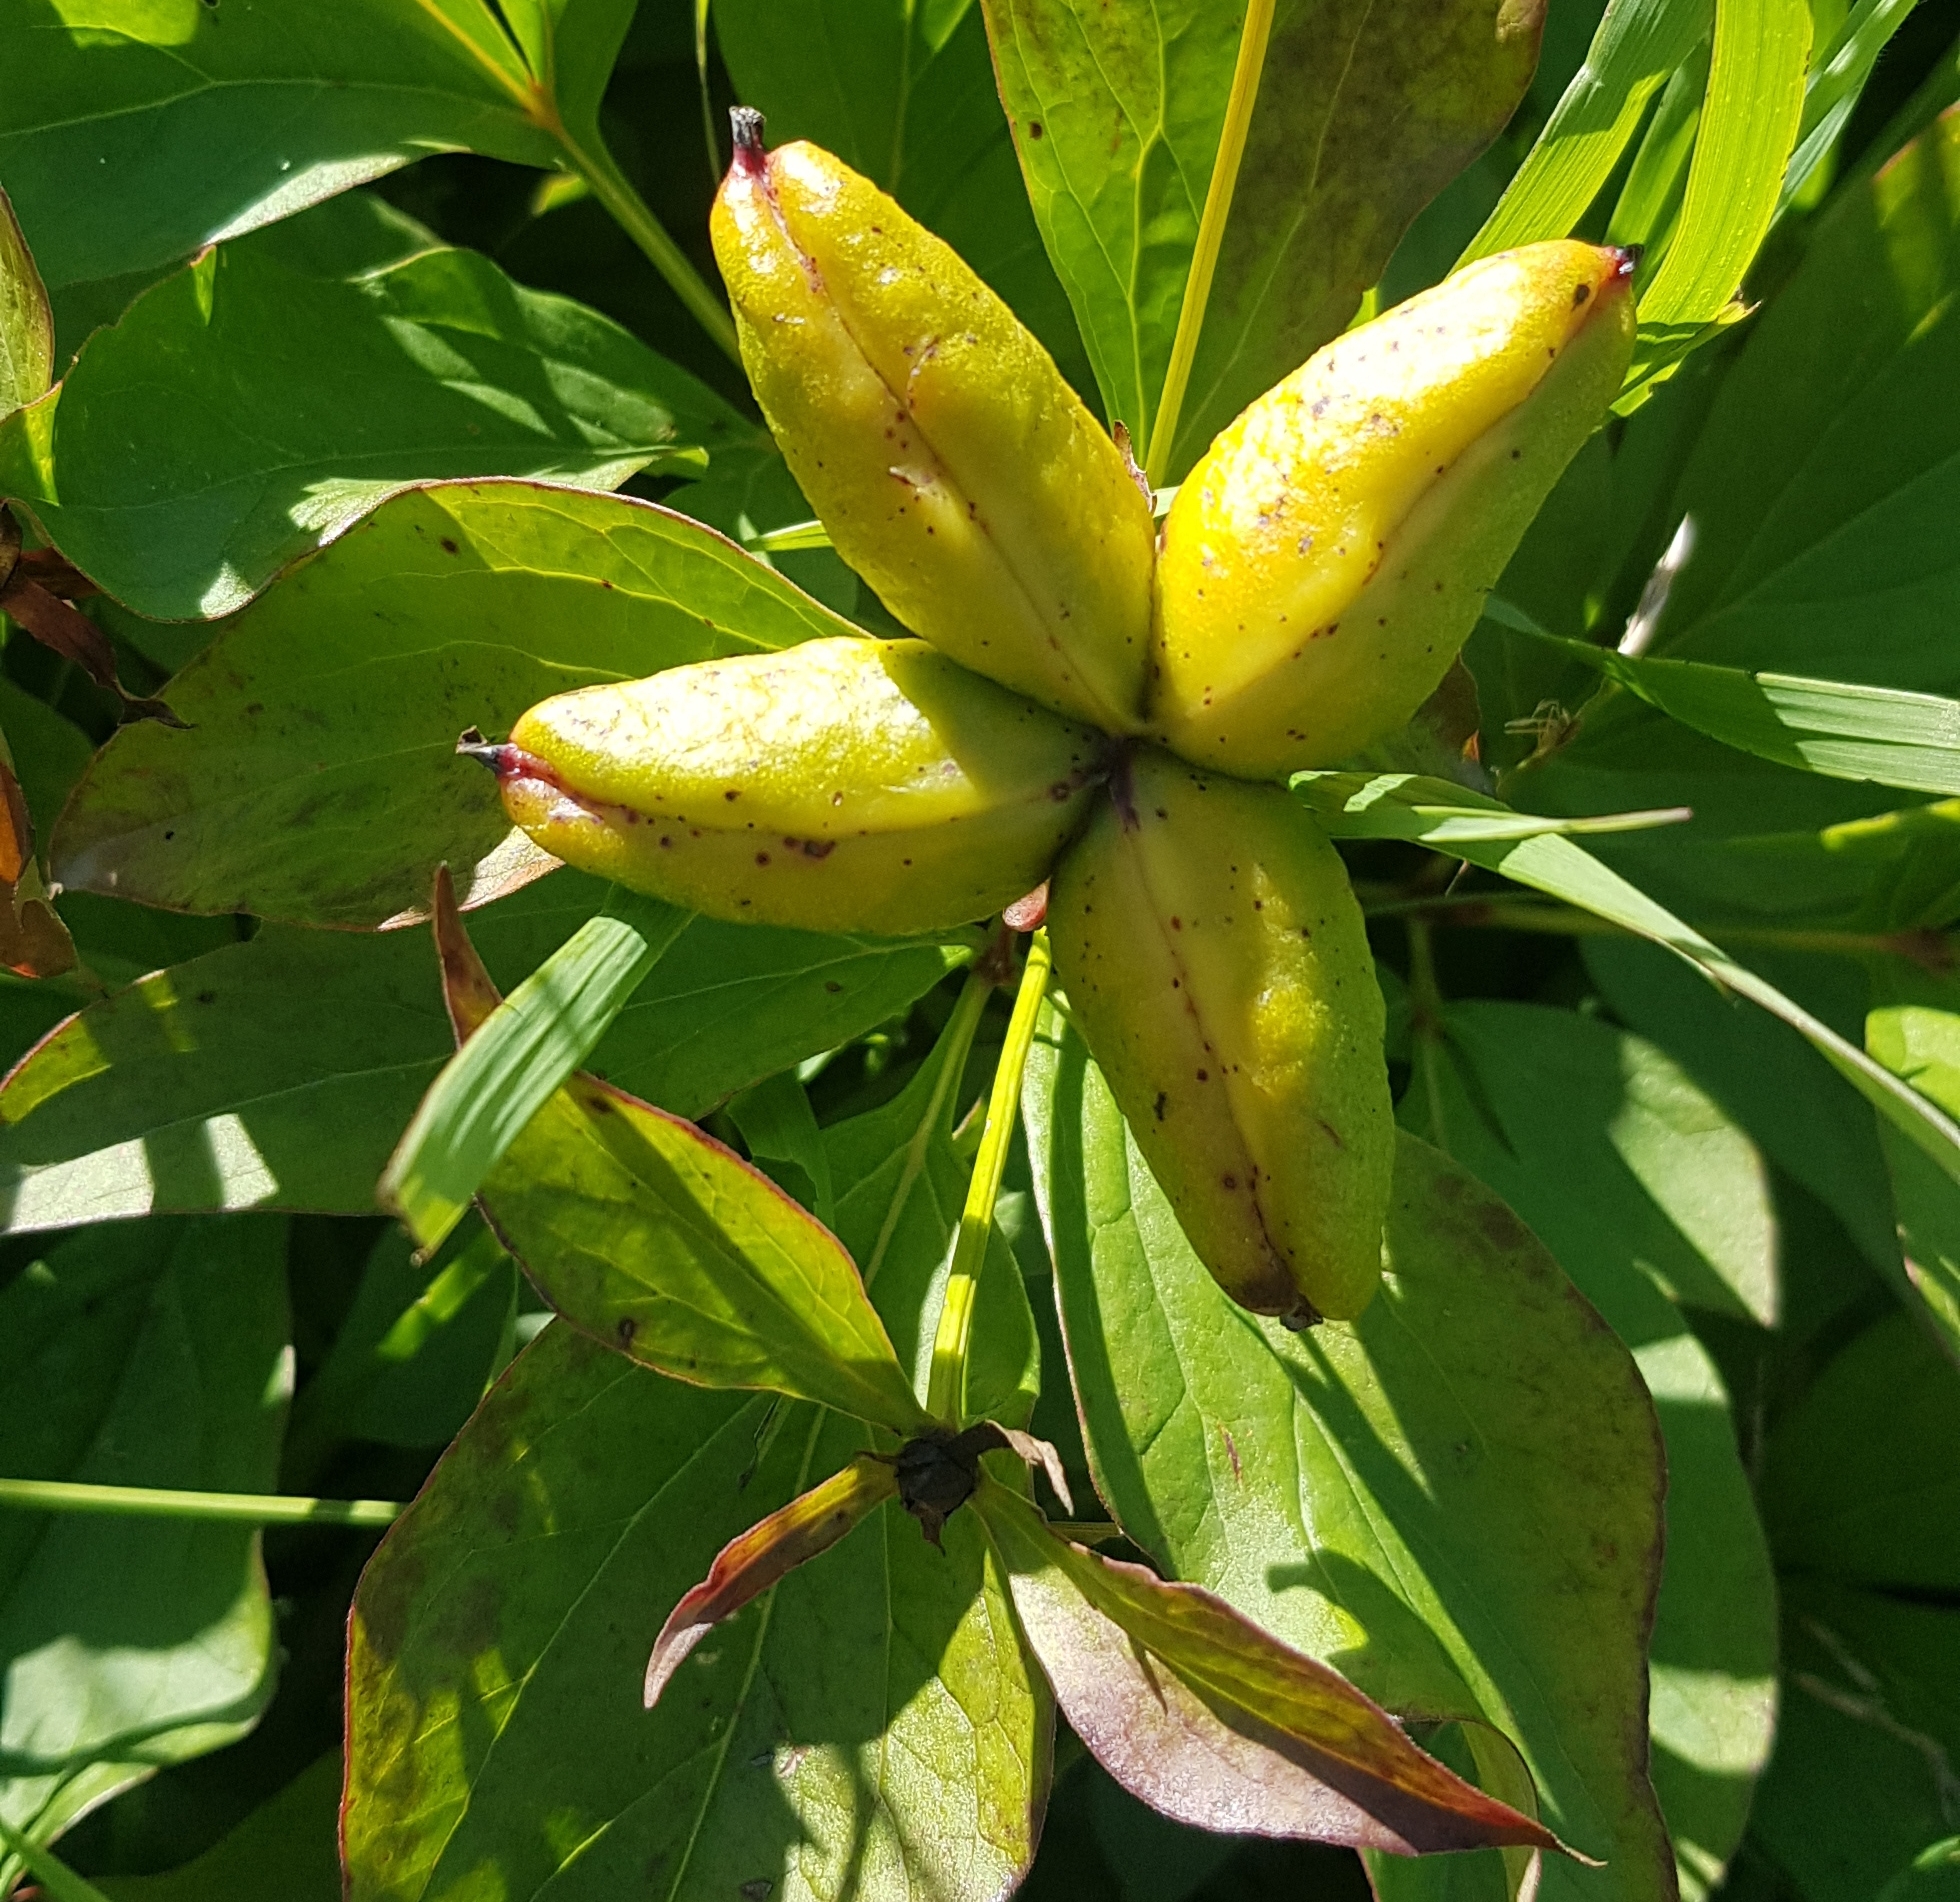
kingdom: Plantae
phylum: Tracheophyta
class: Magnoliopsida
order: Saxifragales
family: Paeoniaceae
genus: Paeonia
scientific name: Paeonia lactiflora
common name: Chinese peony
